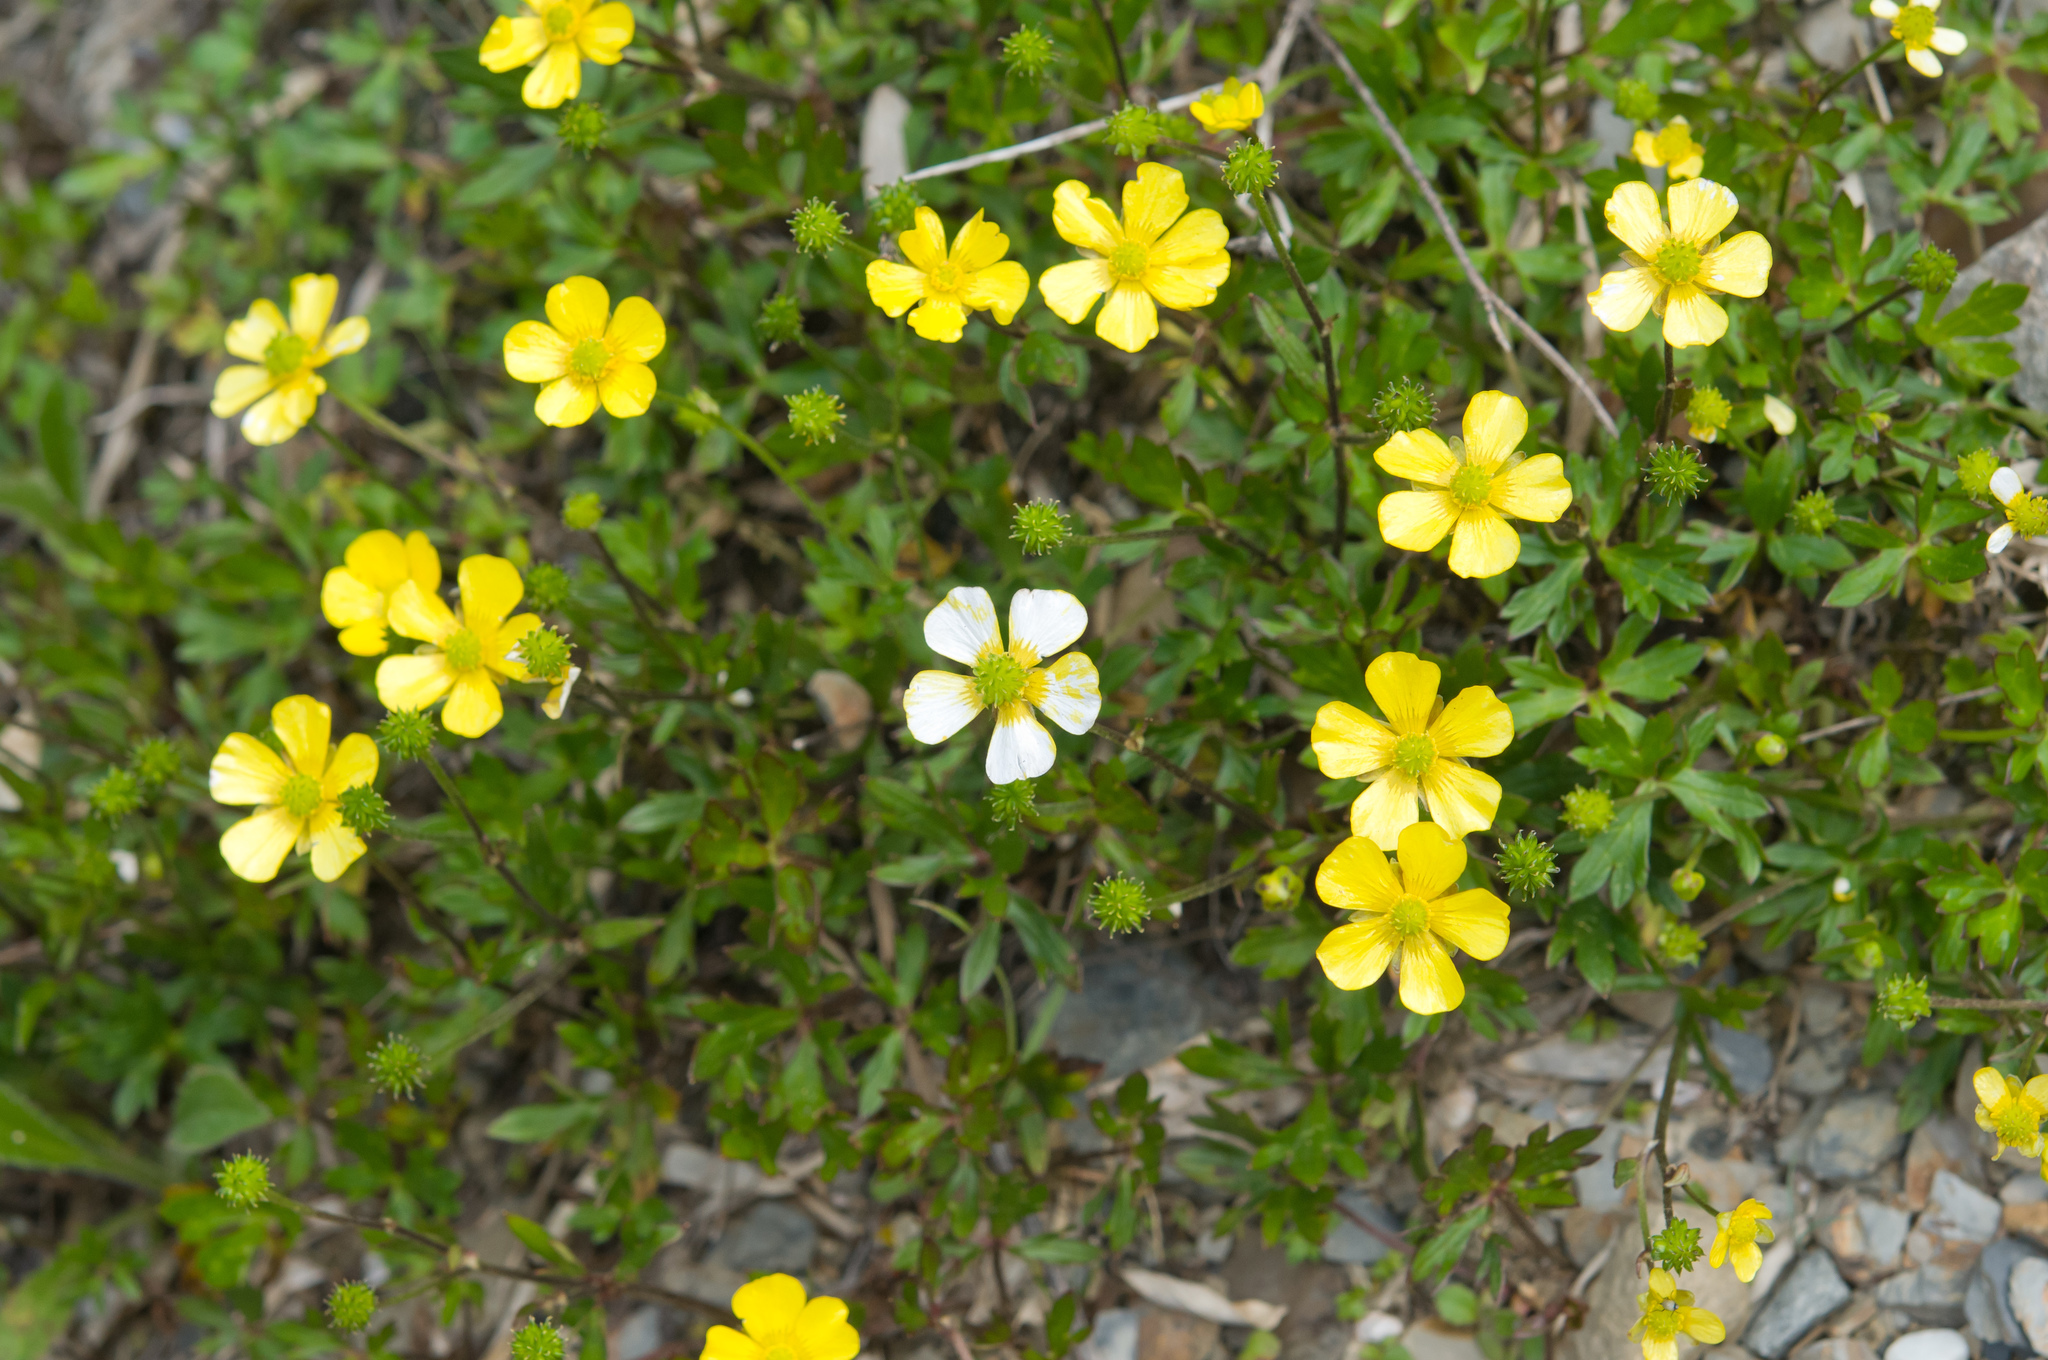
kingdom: Plantae
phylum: Tracheophyta
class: Magnoliopsida
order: Ranunculales
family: Ranunculaceae
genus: Ranunculus
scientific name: Ranunculus formosa-montanus
